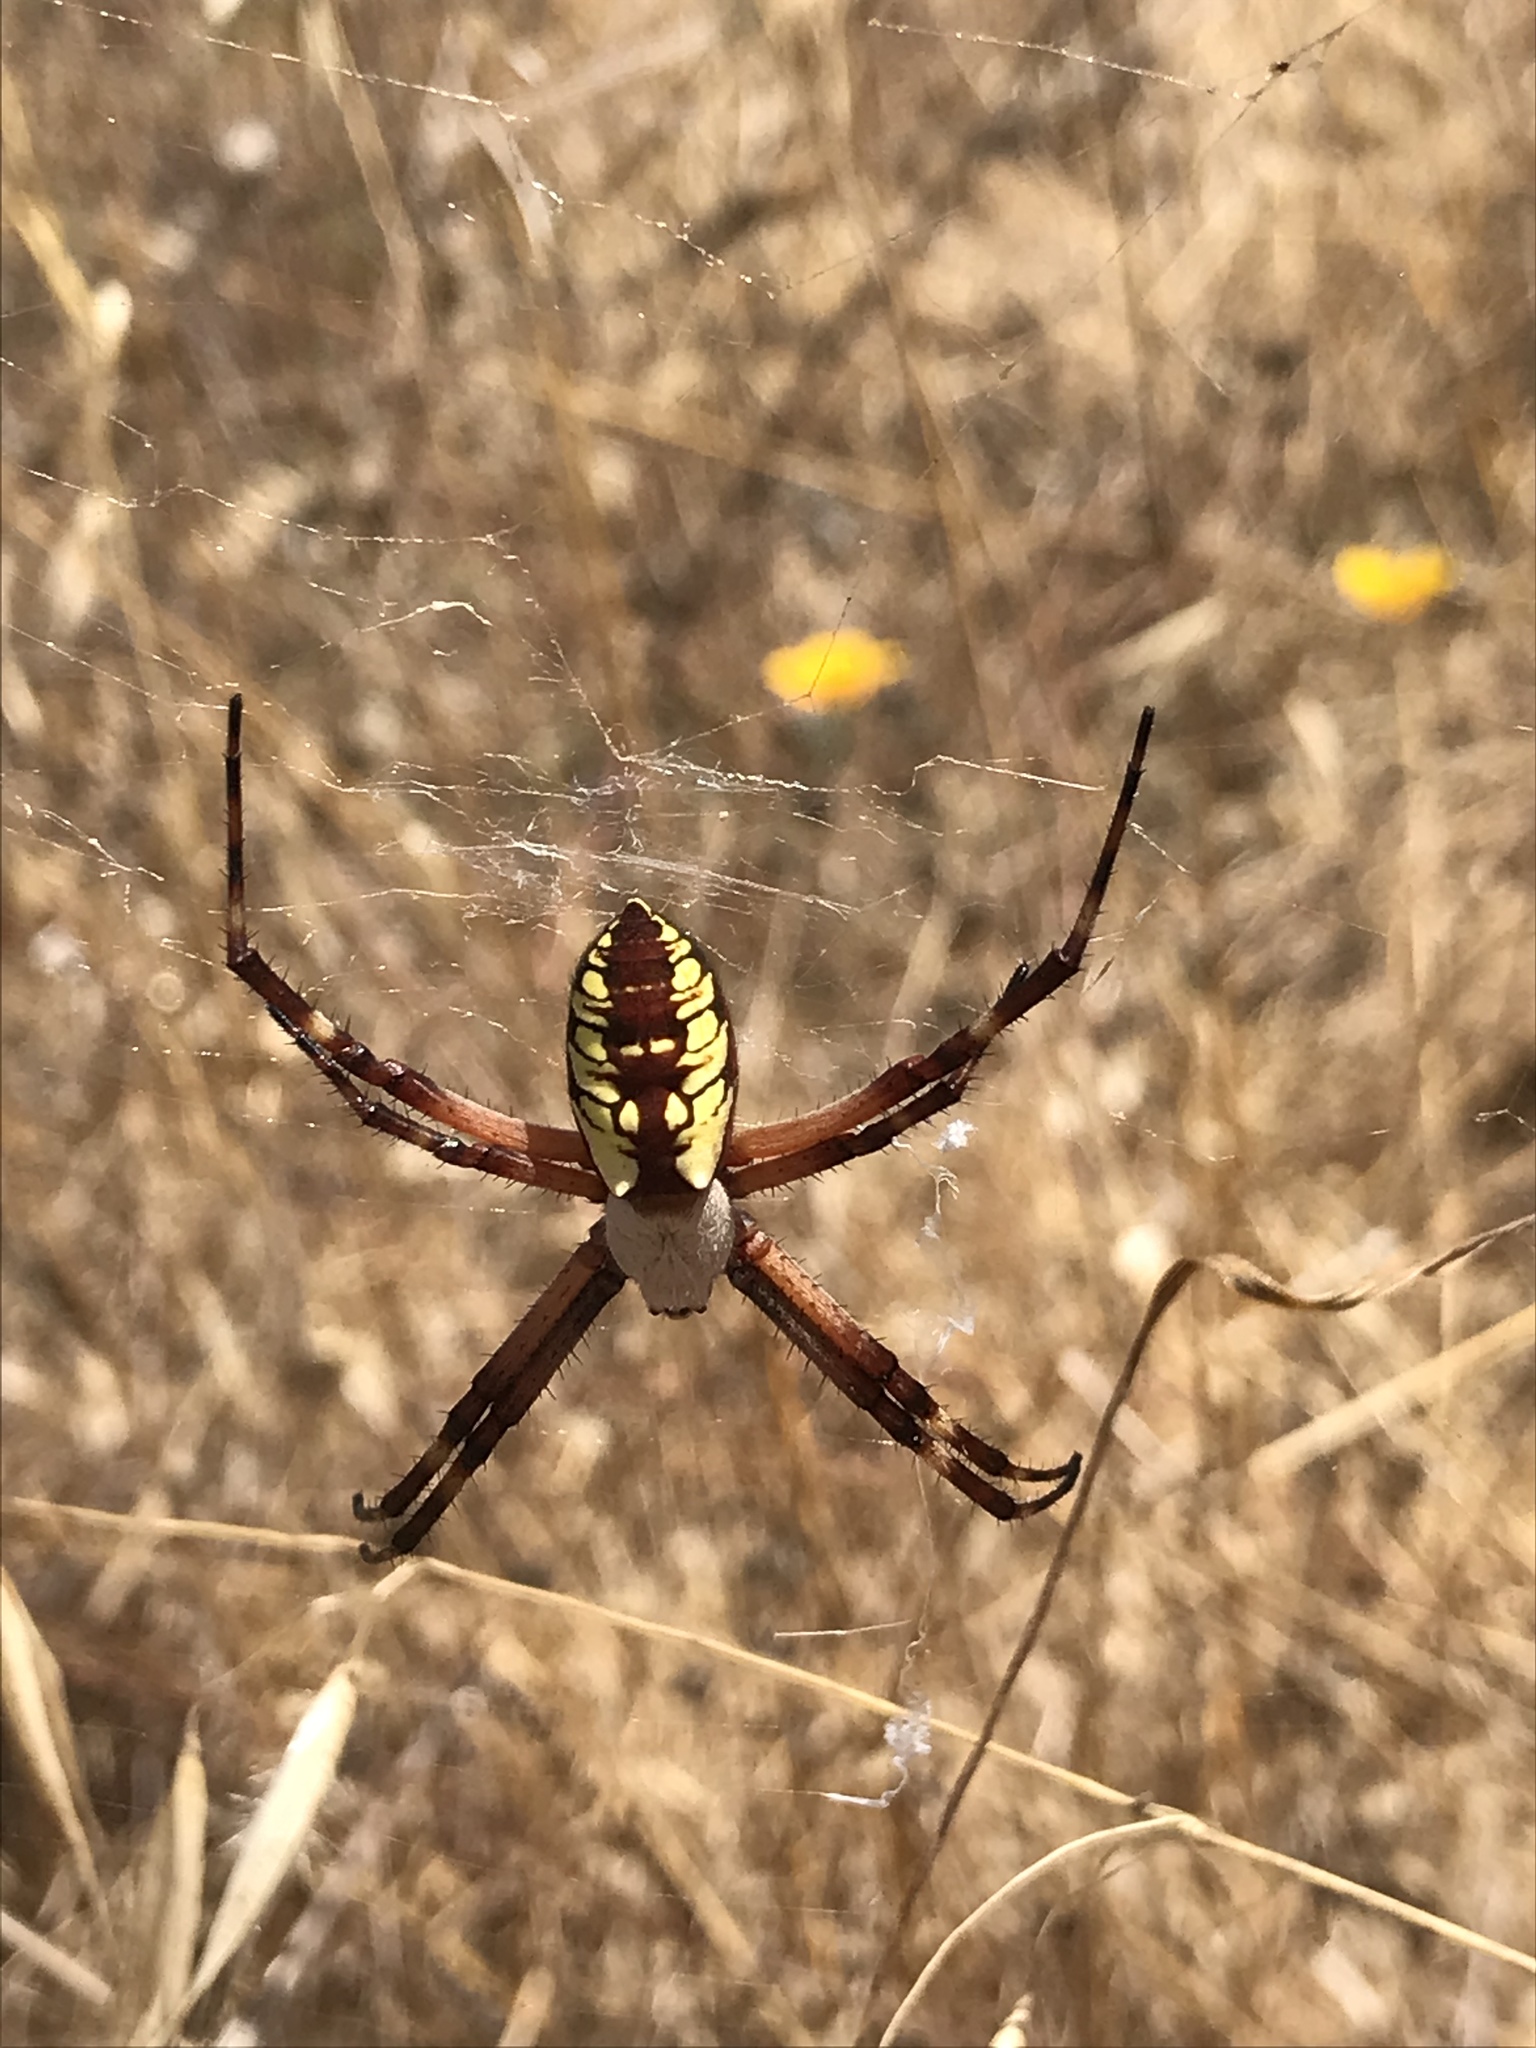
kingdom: Animalia
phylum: Arthropoda
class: Arachnida
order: Araneae
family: Araneidae
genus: Argiope
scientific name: Argiope aurantia
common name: Orb weavers
